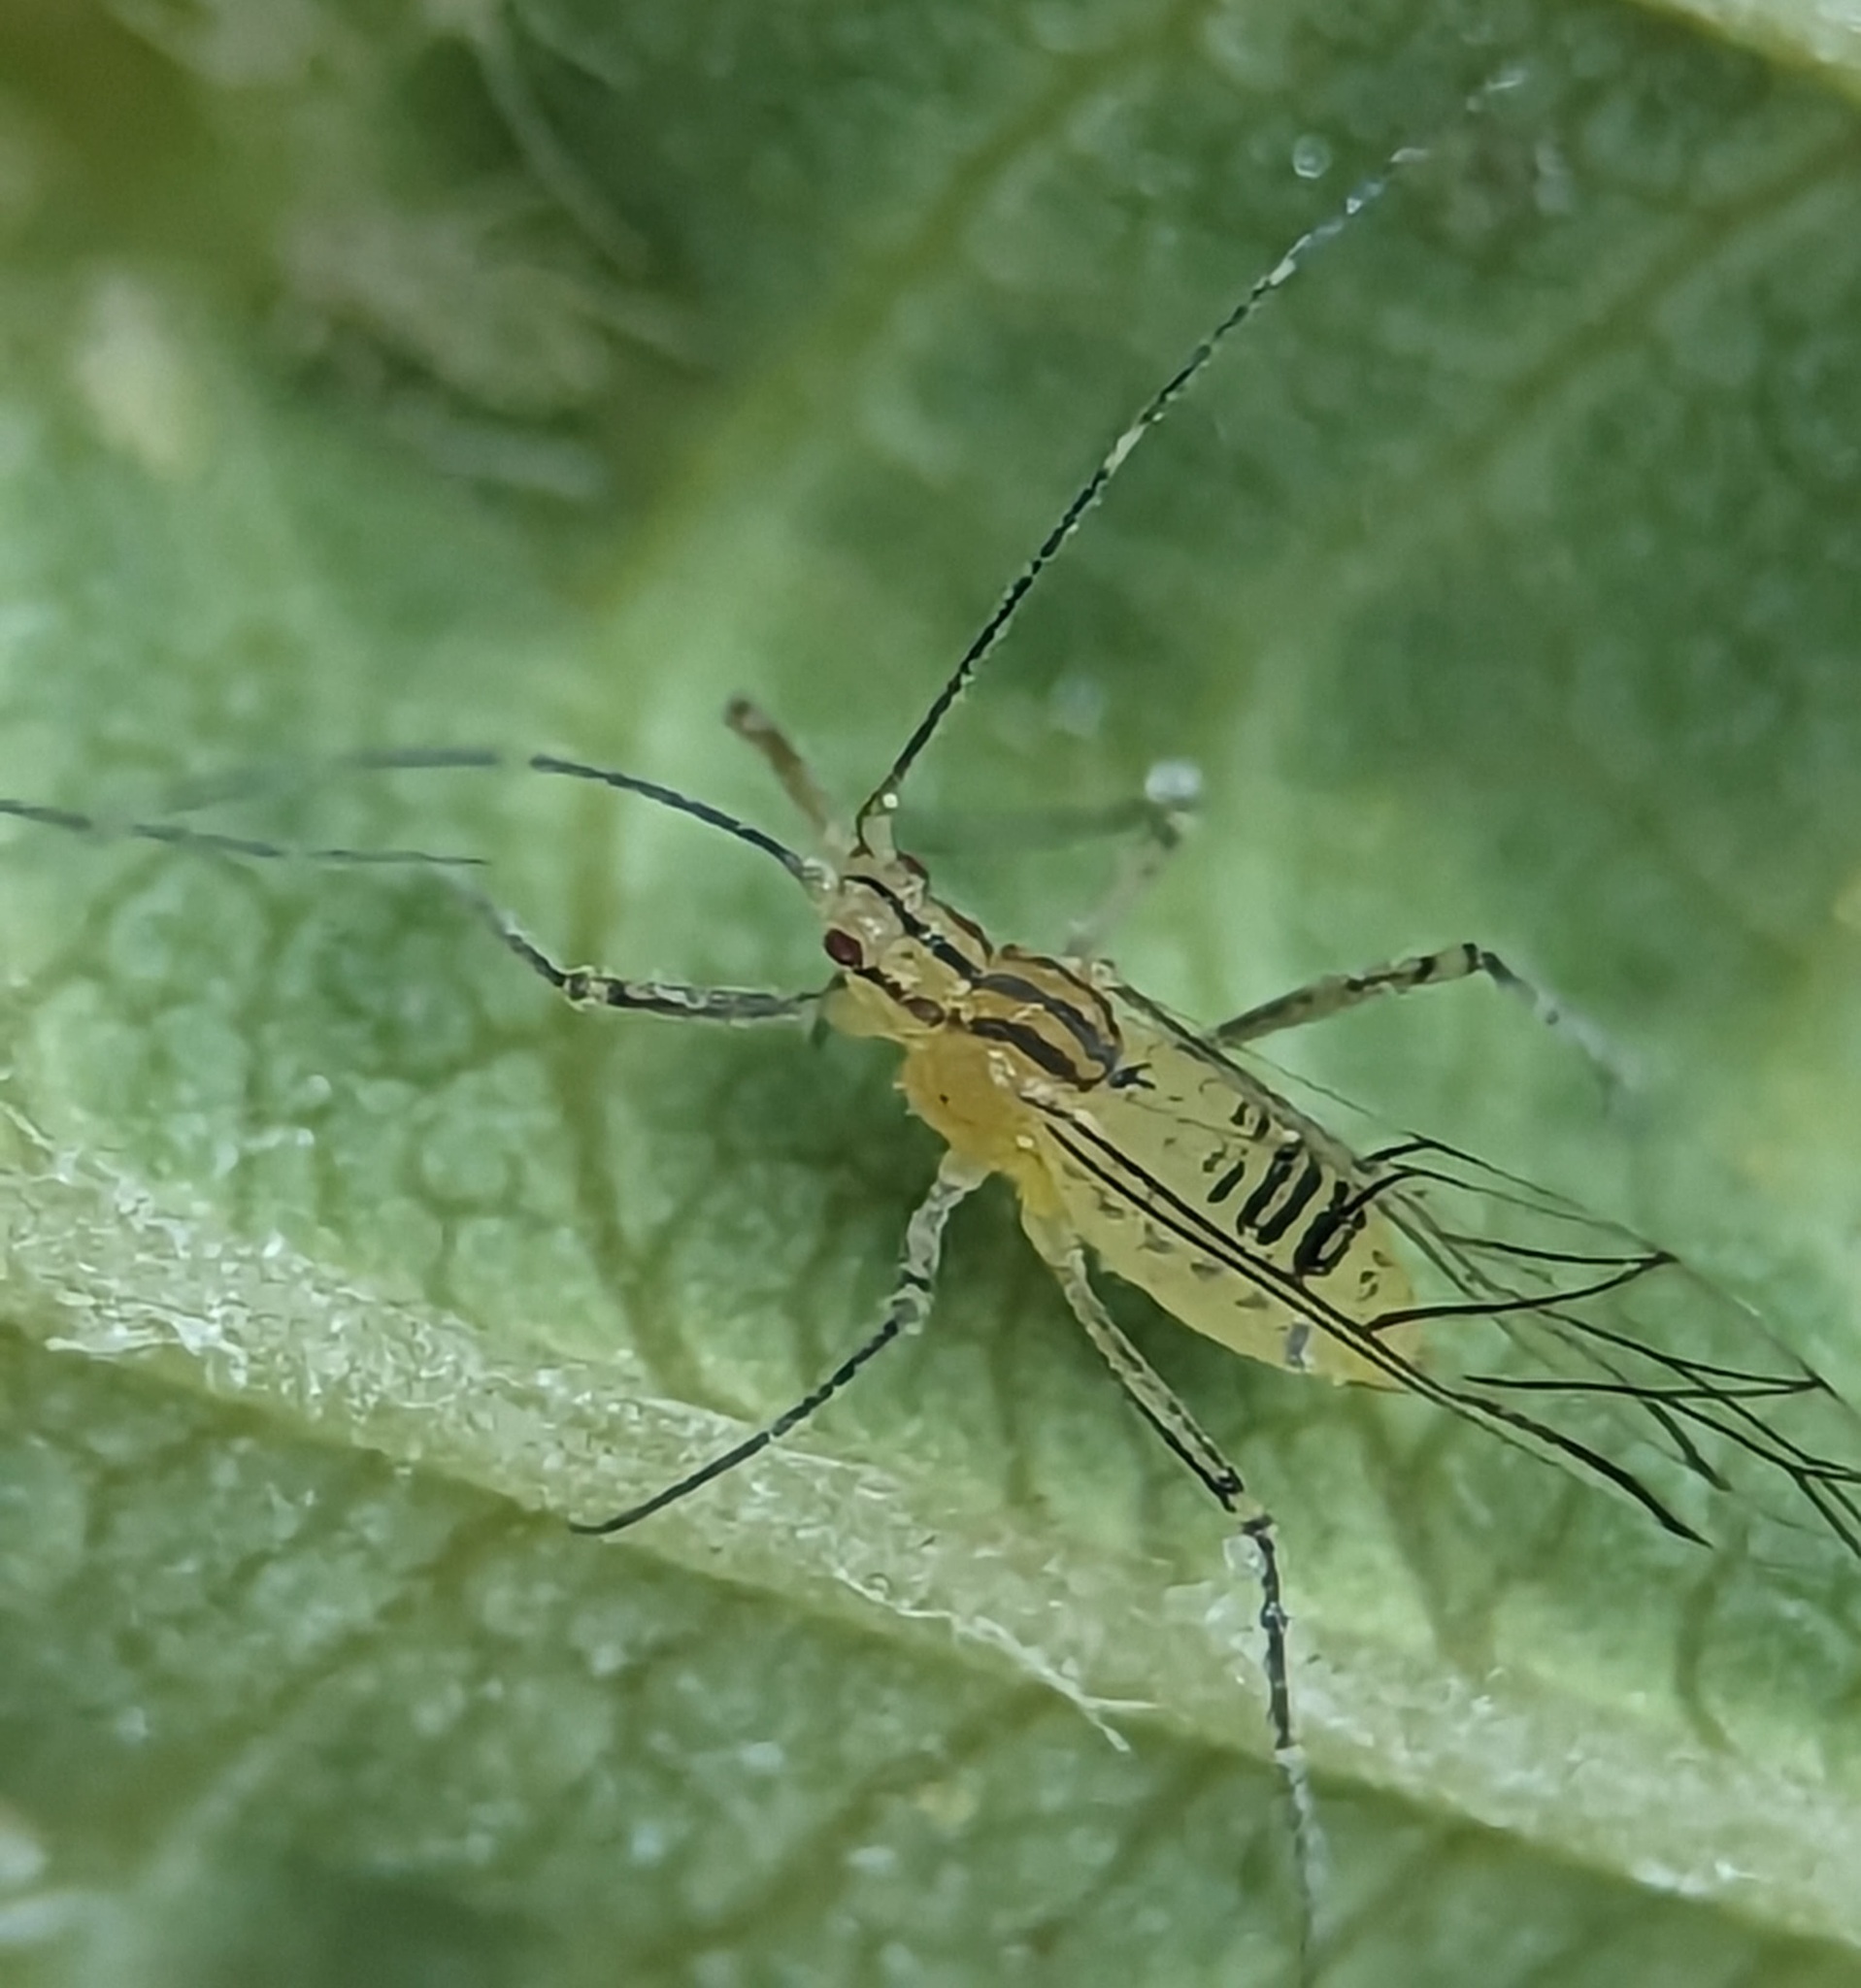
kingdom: Animalia
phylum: Arthropoda
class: Insecta
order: Hemiptera
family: Aphididae
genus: Calaphis
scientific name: Calaphis betulella
